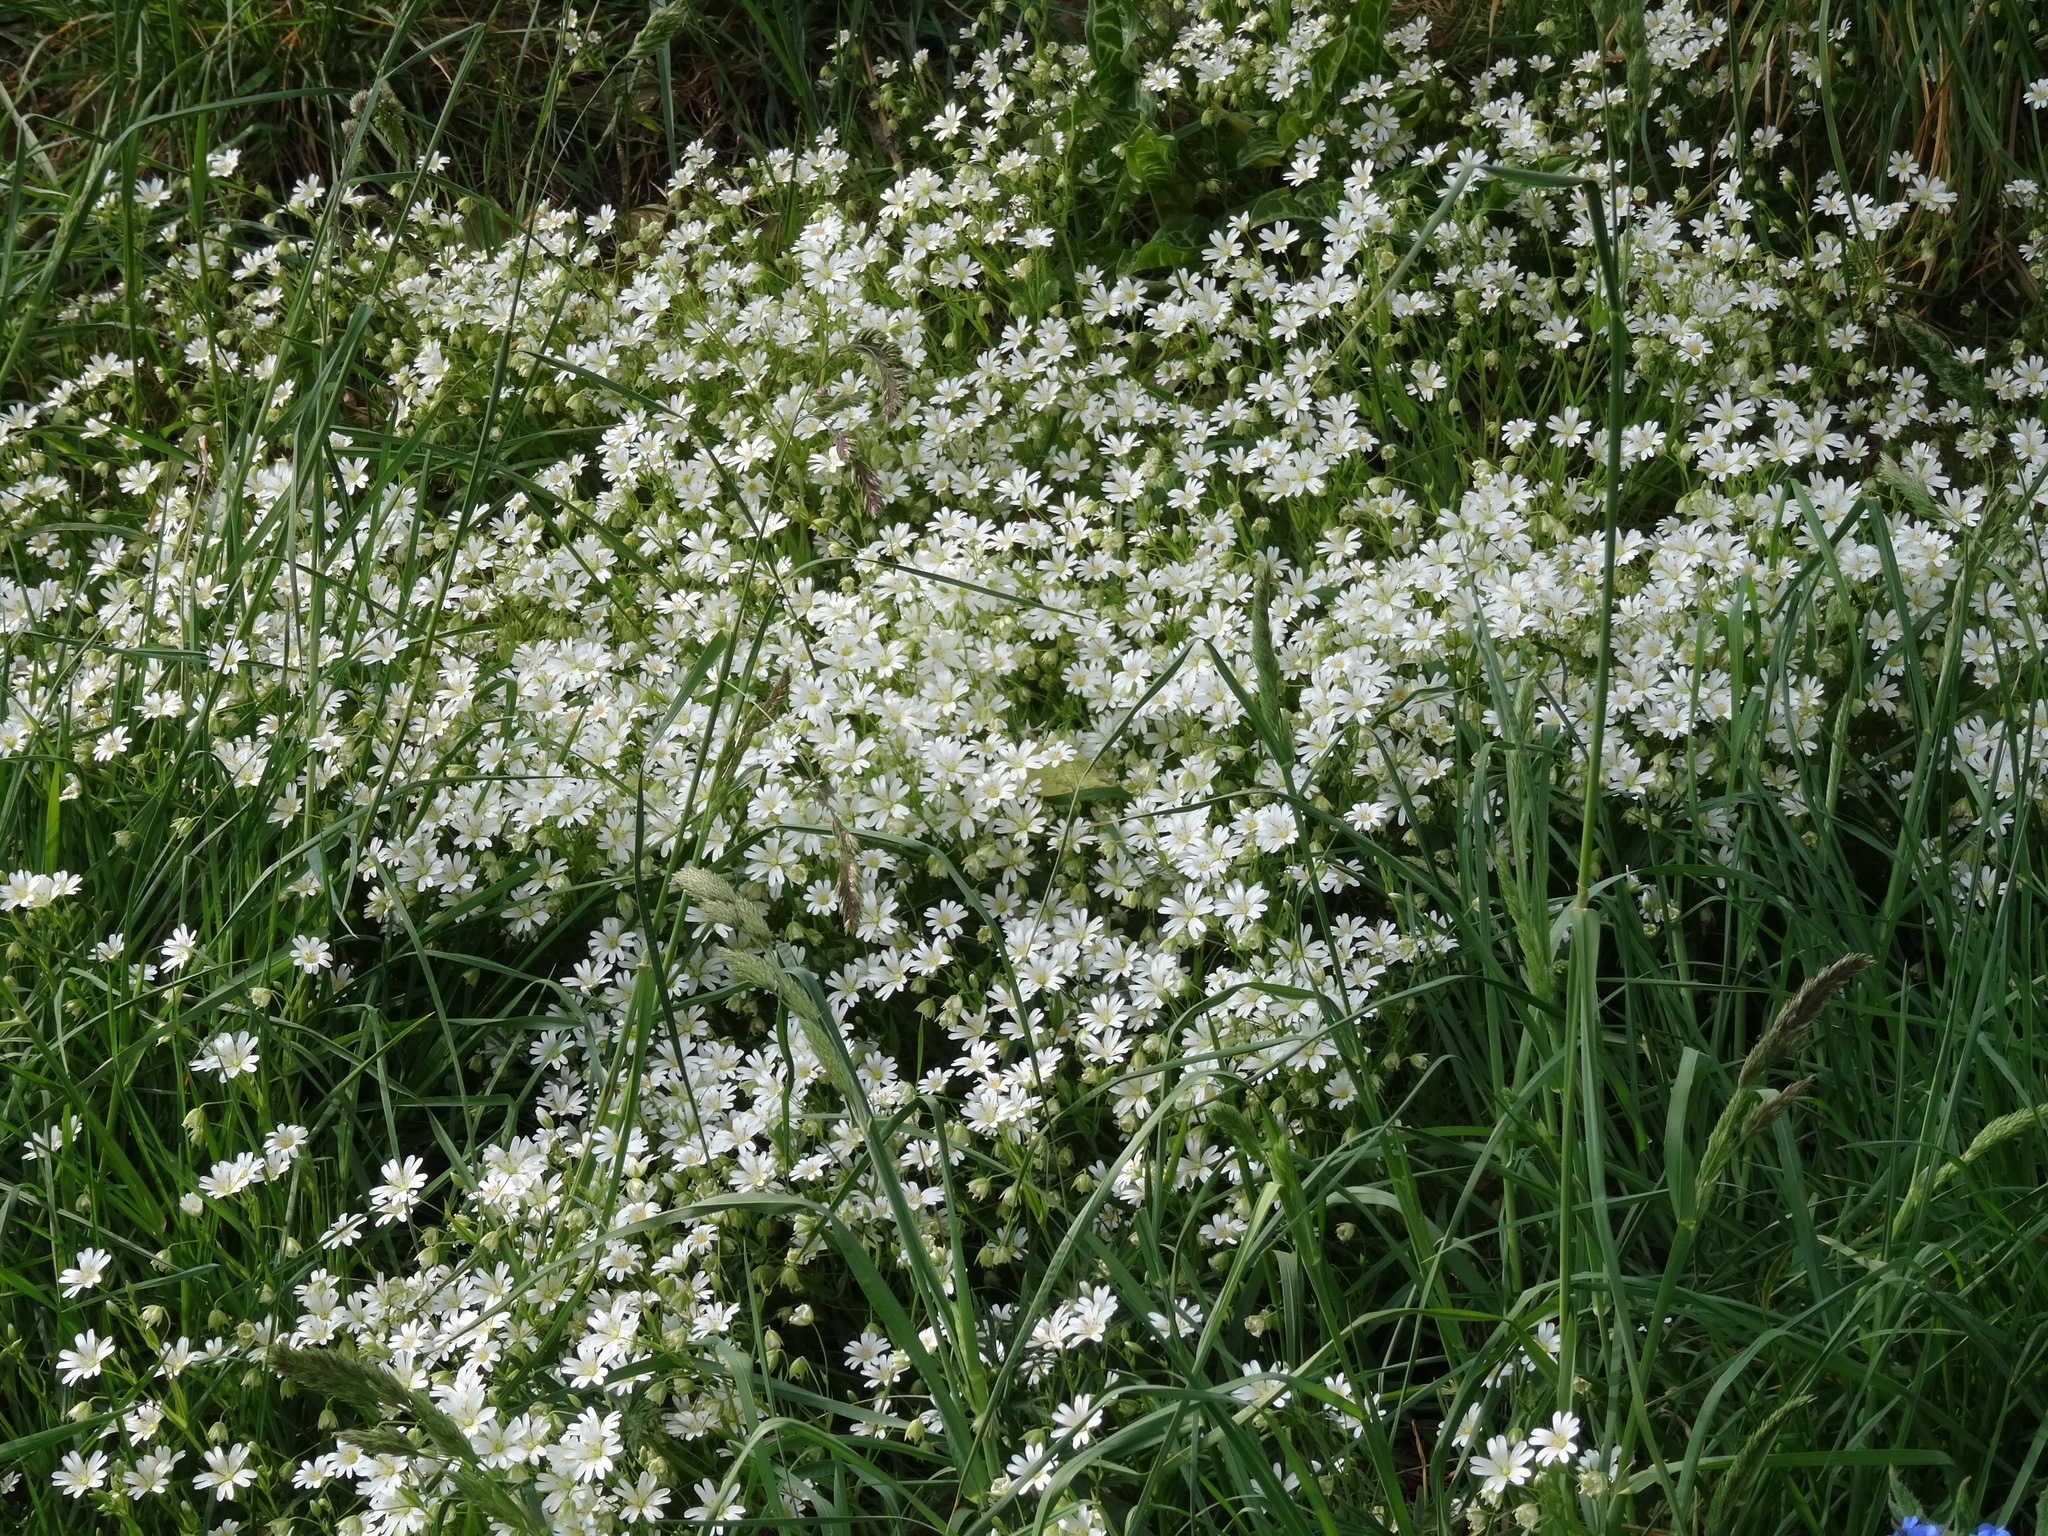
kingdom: Plantae
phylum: Tracheophyta
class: Magnoliopsida
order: Caryophyllales
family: Caryophyllaceae
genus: Rabelera
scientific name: Rabelera holostea
